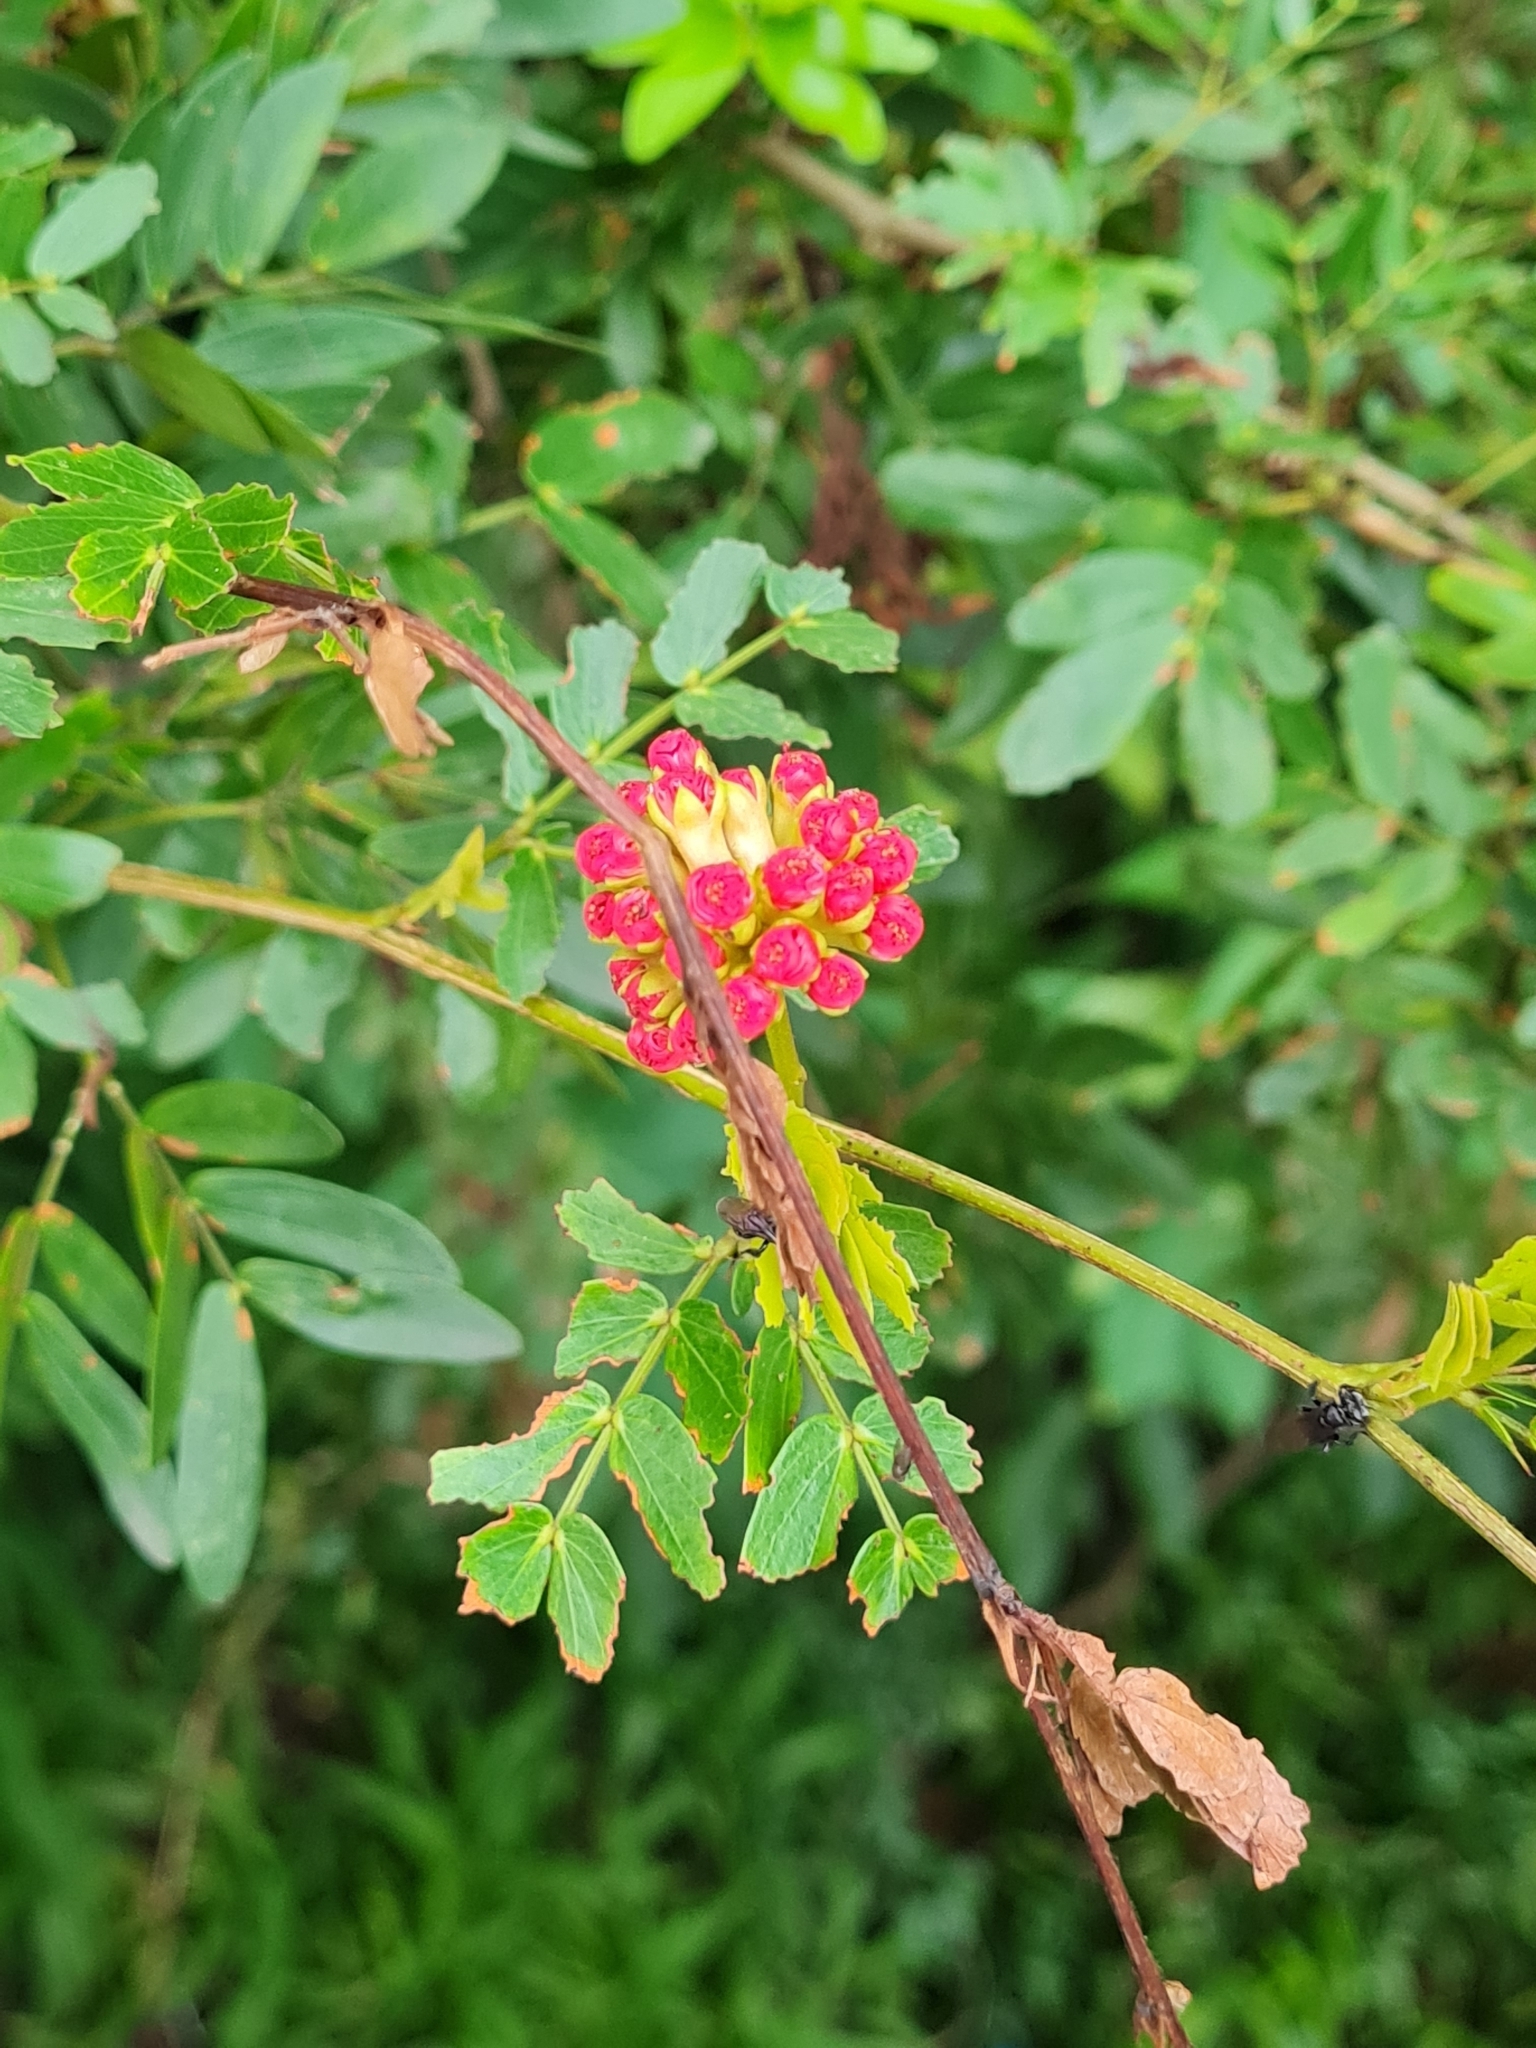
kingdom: Plantae
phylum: Tracheophyta
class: Magnoliopsida
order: Fabales
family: Fabaceae
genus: Calliandra
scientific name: Calliandra haematocephala
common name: Blood red tassel flower
